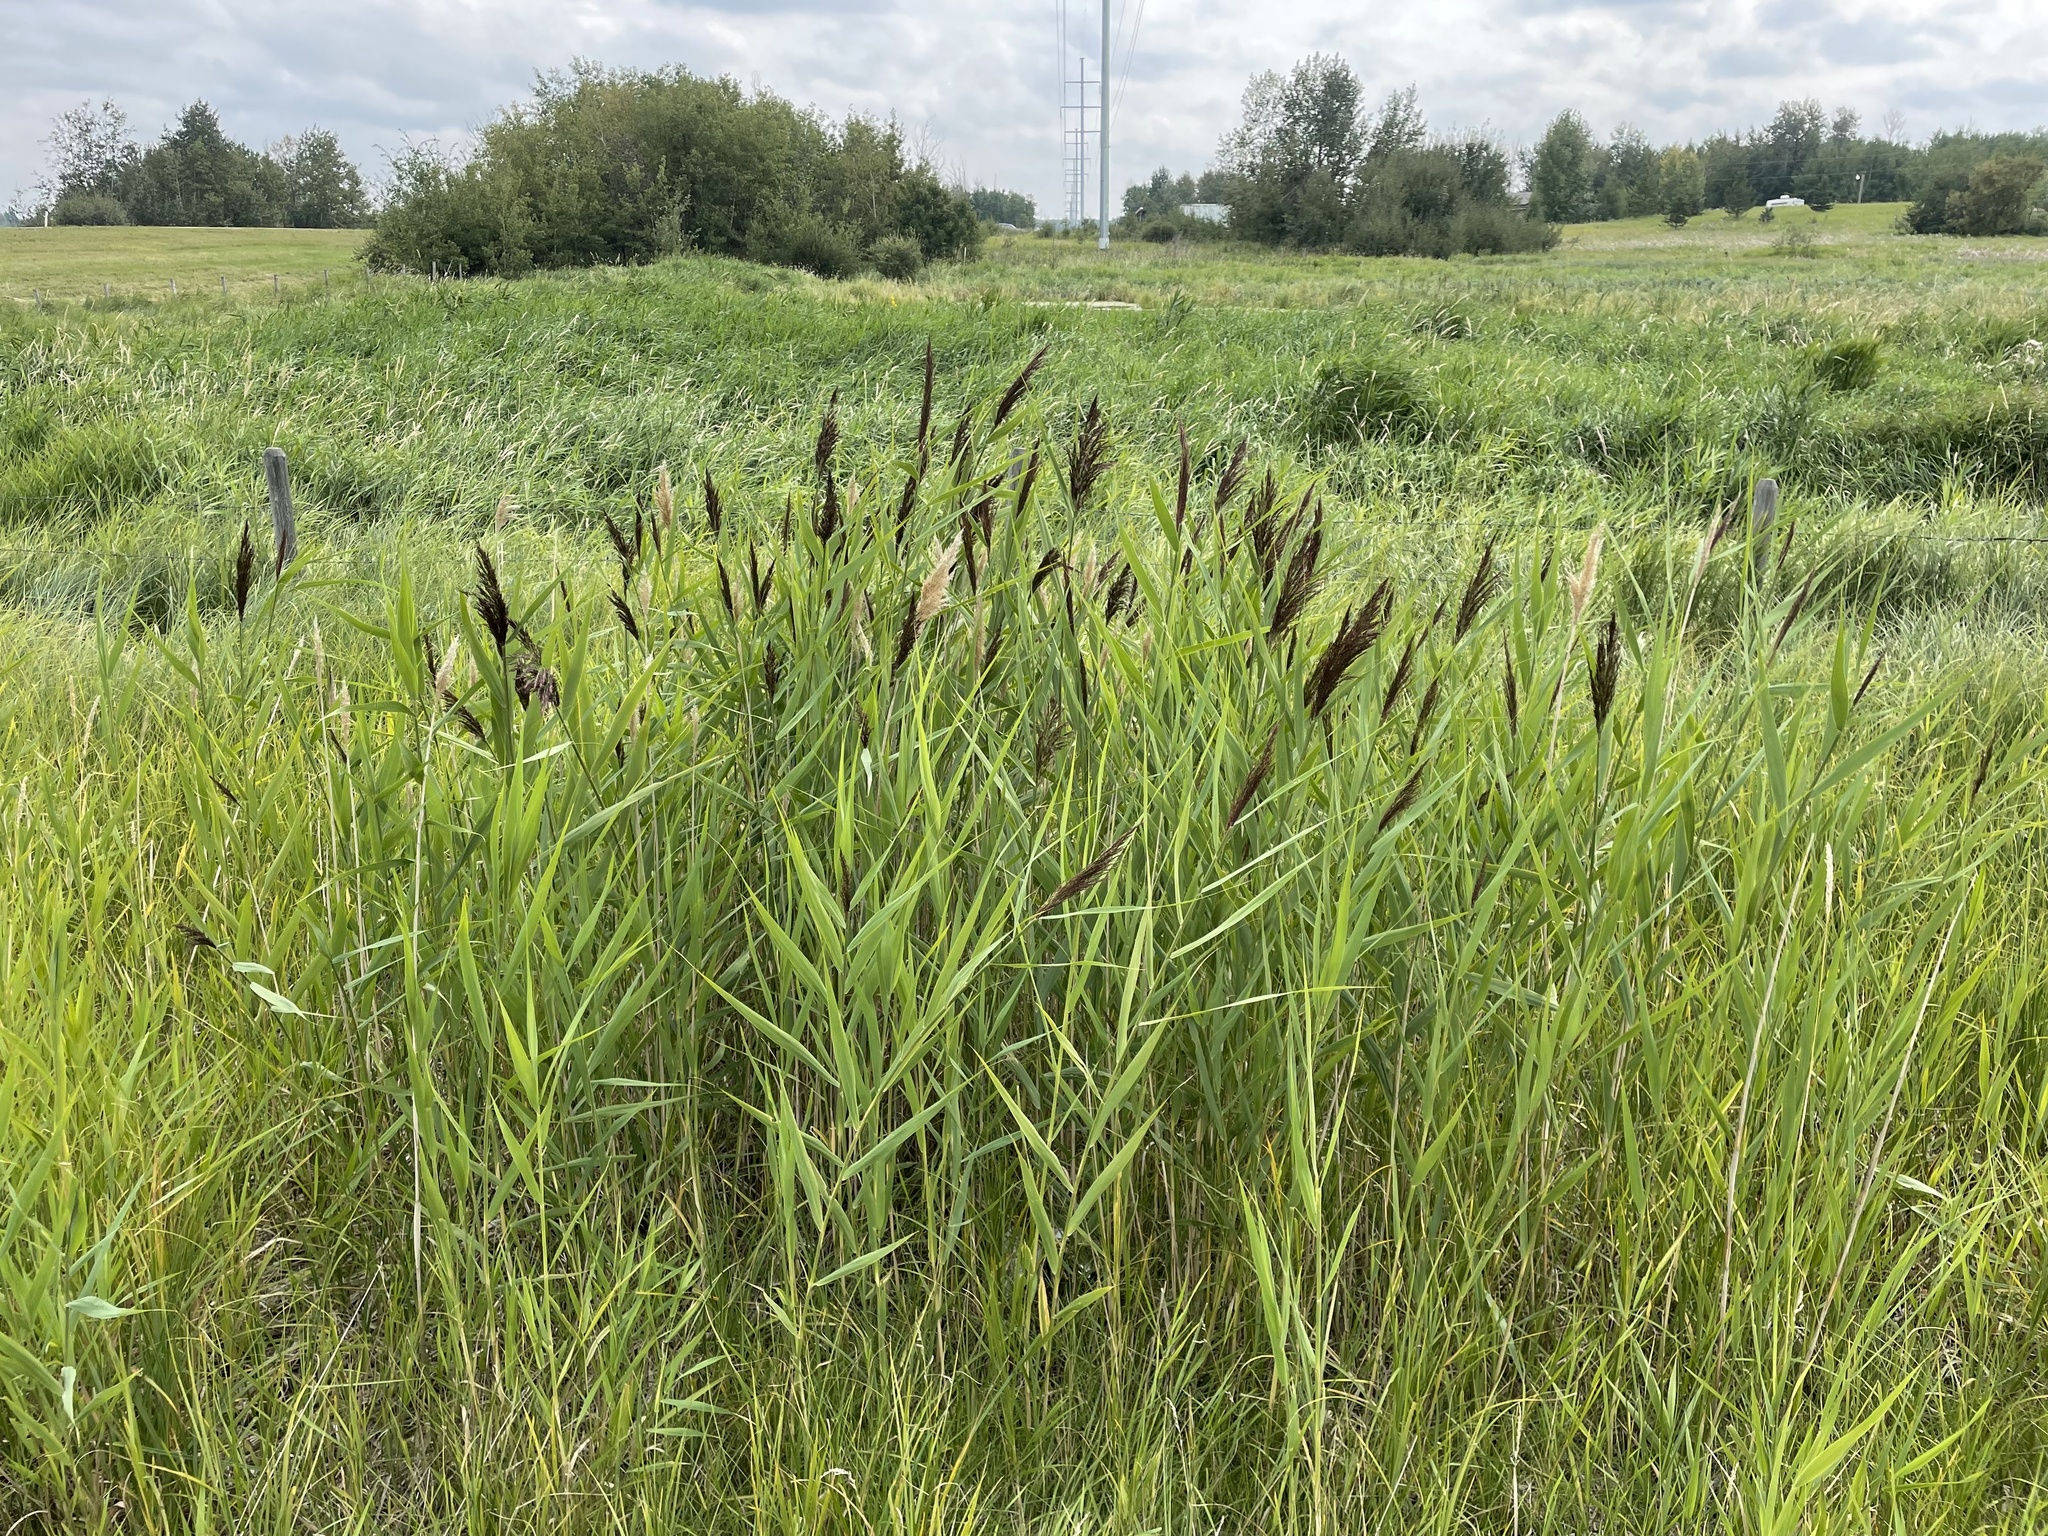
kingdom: Plantae
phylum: Tracheophyta
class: Liliopsida
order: Poales
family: Poaceae
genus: Phragmites
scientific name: Phragmites australis
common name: Common reed
